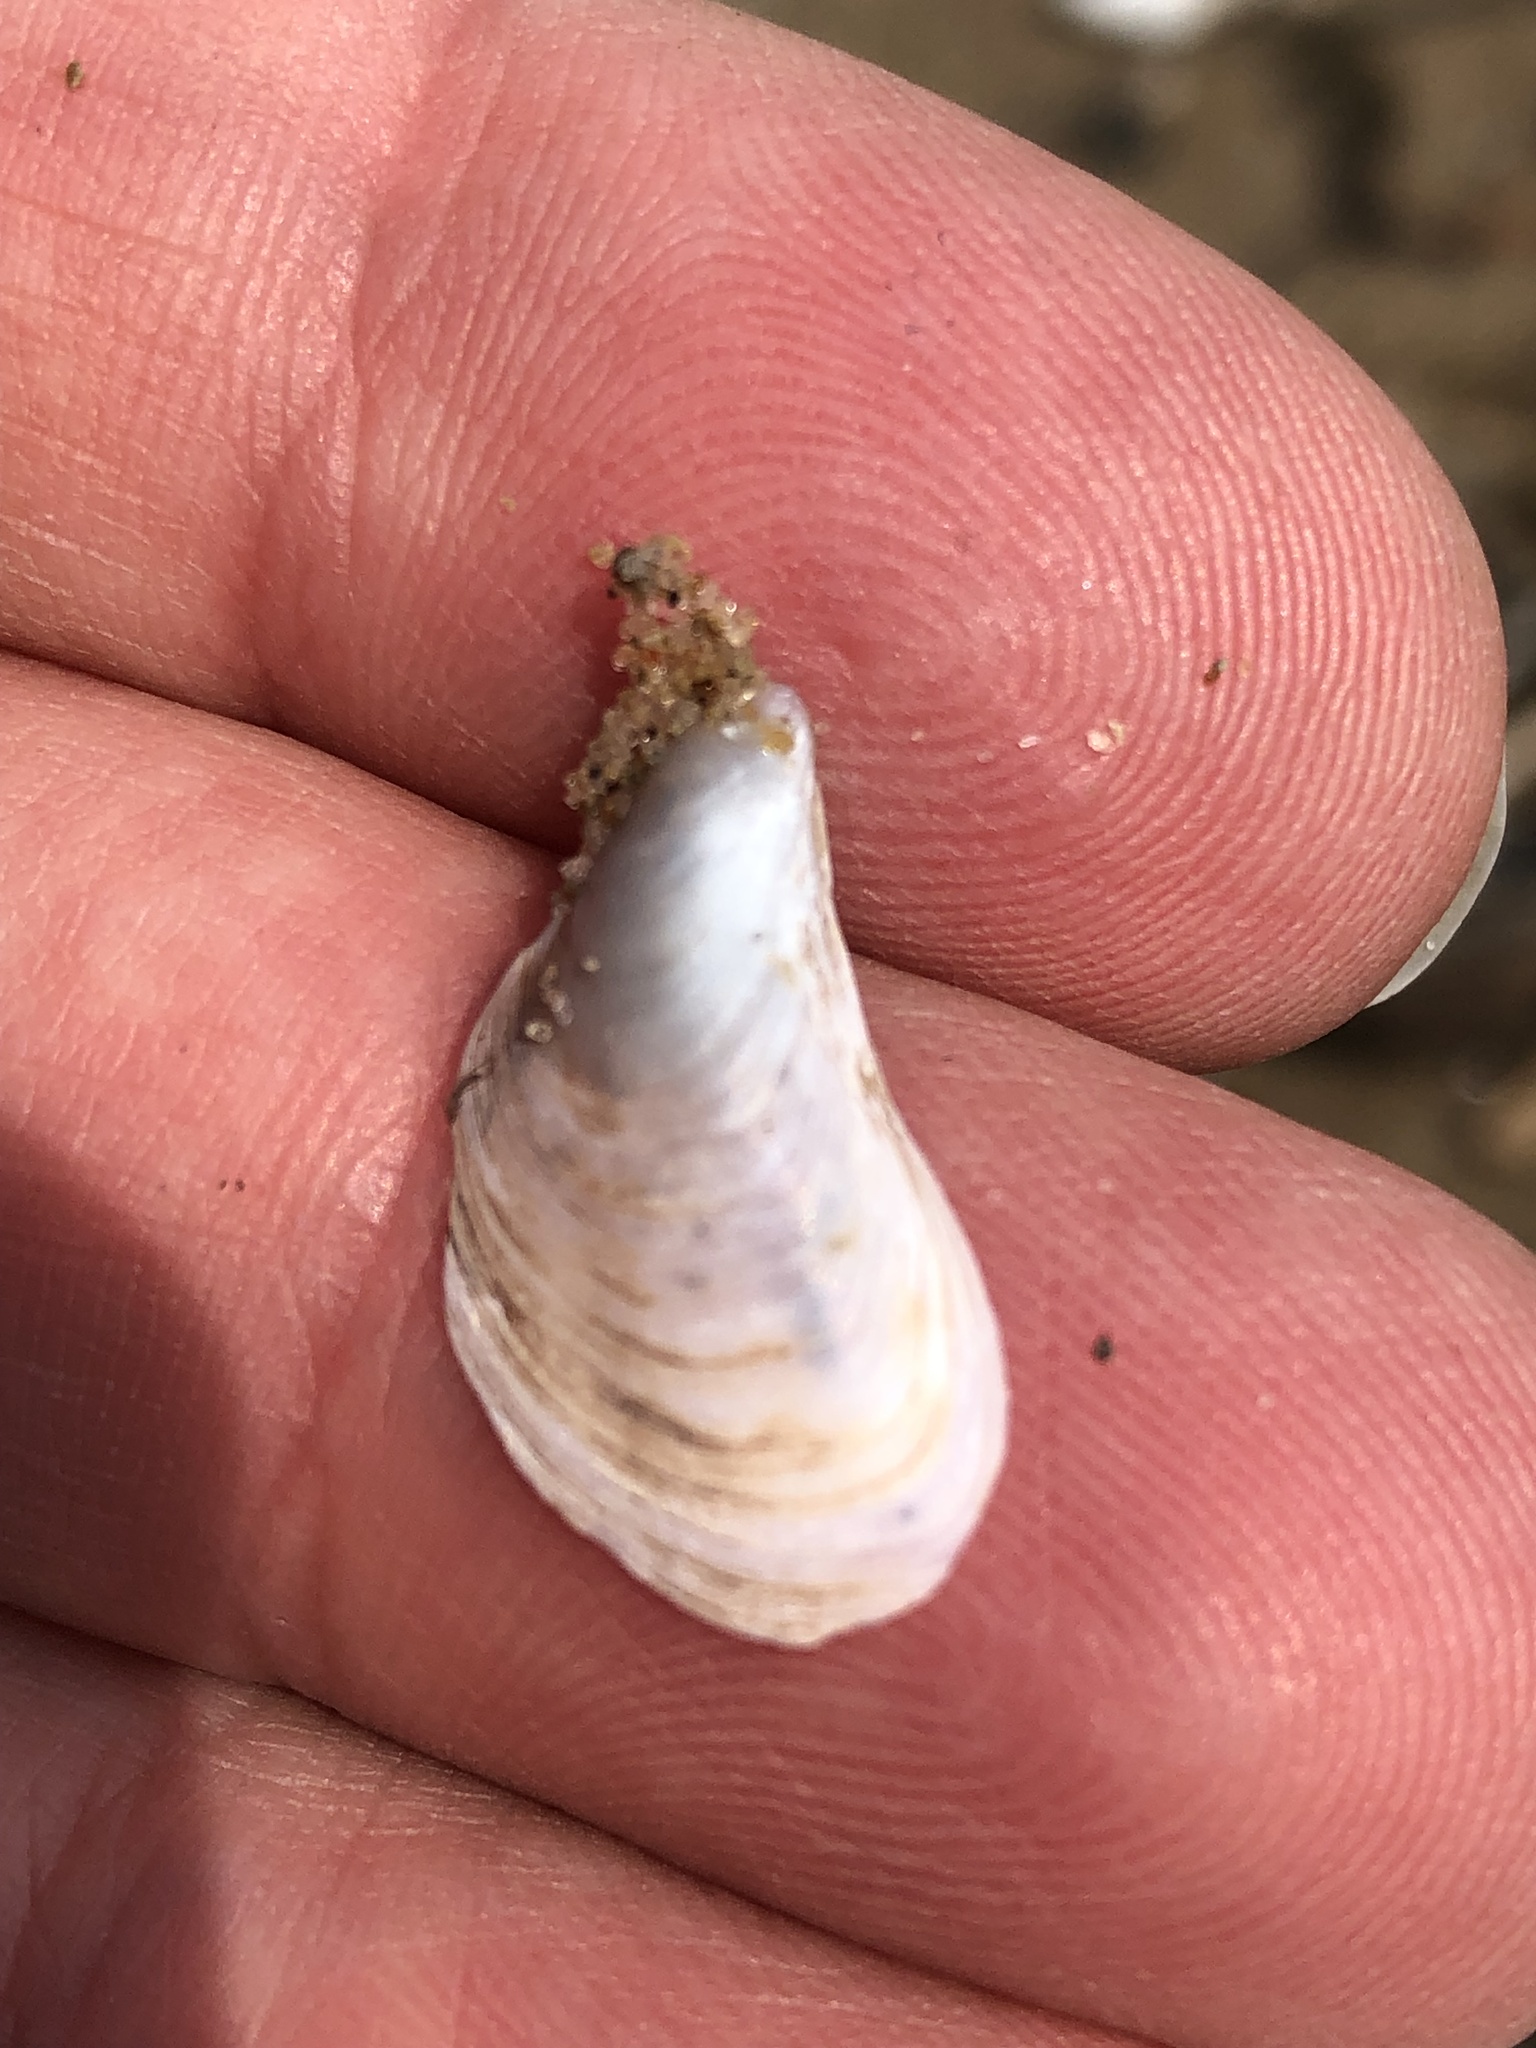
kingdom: Animalia
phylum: Mollusca
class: Bivalvia
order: Myida
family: Dreissenidae
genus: Dreissena
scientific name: Dreissena bugensis
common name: Quagga mussel
